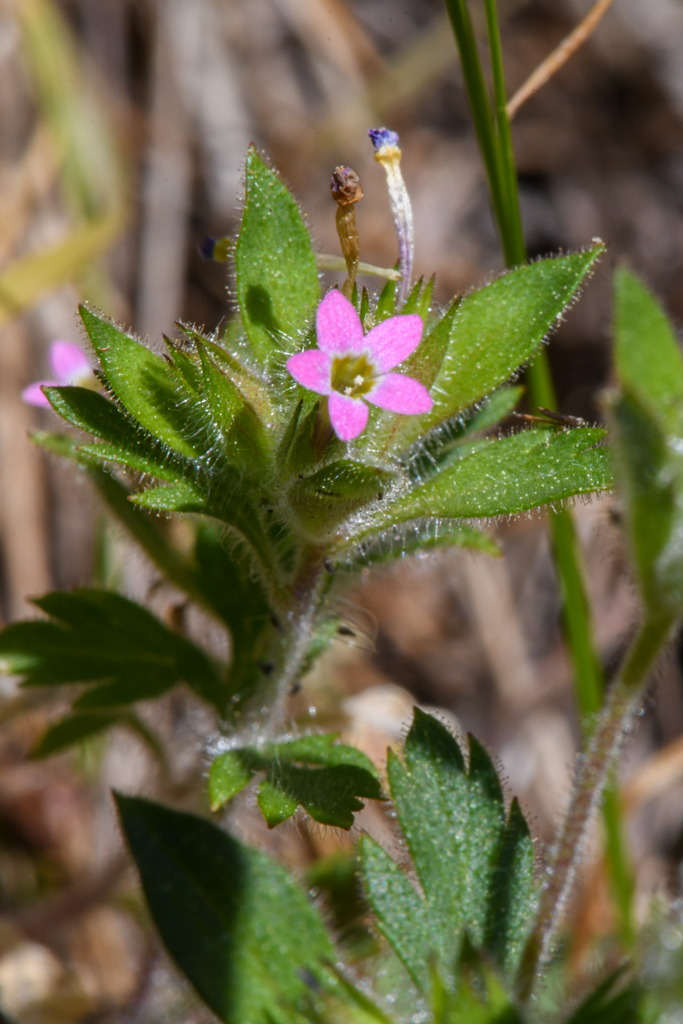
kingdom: Plantae
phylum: Tracheophyta
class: Magnoliopsida
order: Ericales
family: Polemoniaceae
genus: Collomia
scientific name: Collomia heterophylla
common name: Variable-leaved collomia
